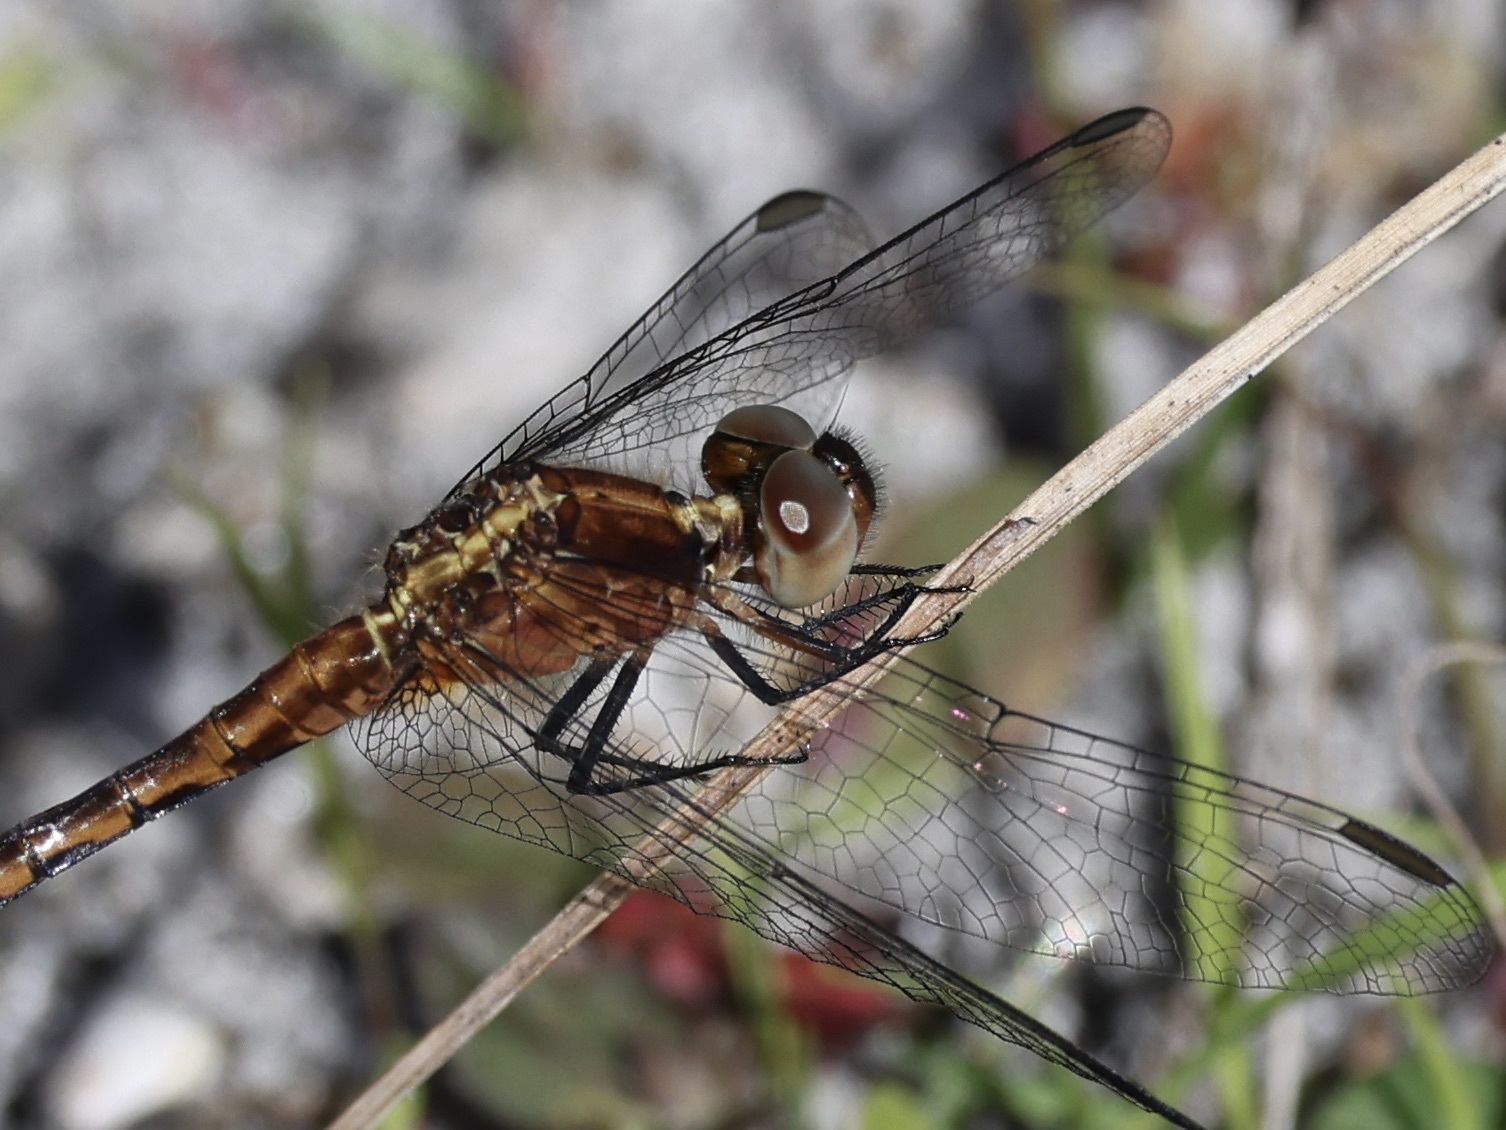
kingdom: Animalia
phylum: Arthropoda
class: Insecta
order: Odonata
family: Libellulidae
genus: Erythrodiplax
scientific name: Erythrodiplax minuscula
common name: Little blue dragonlet
